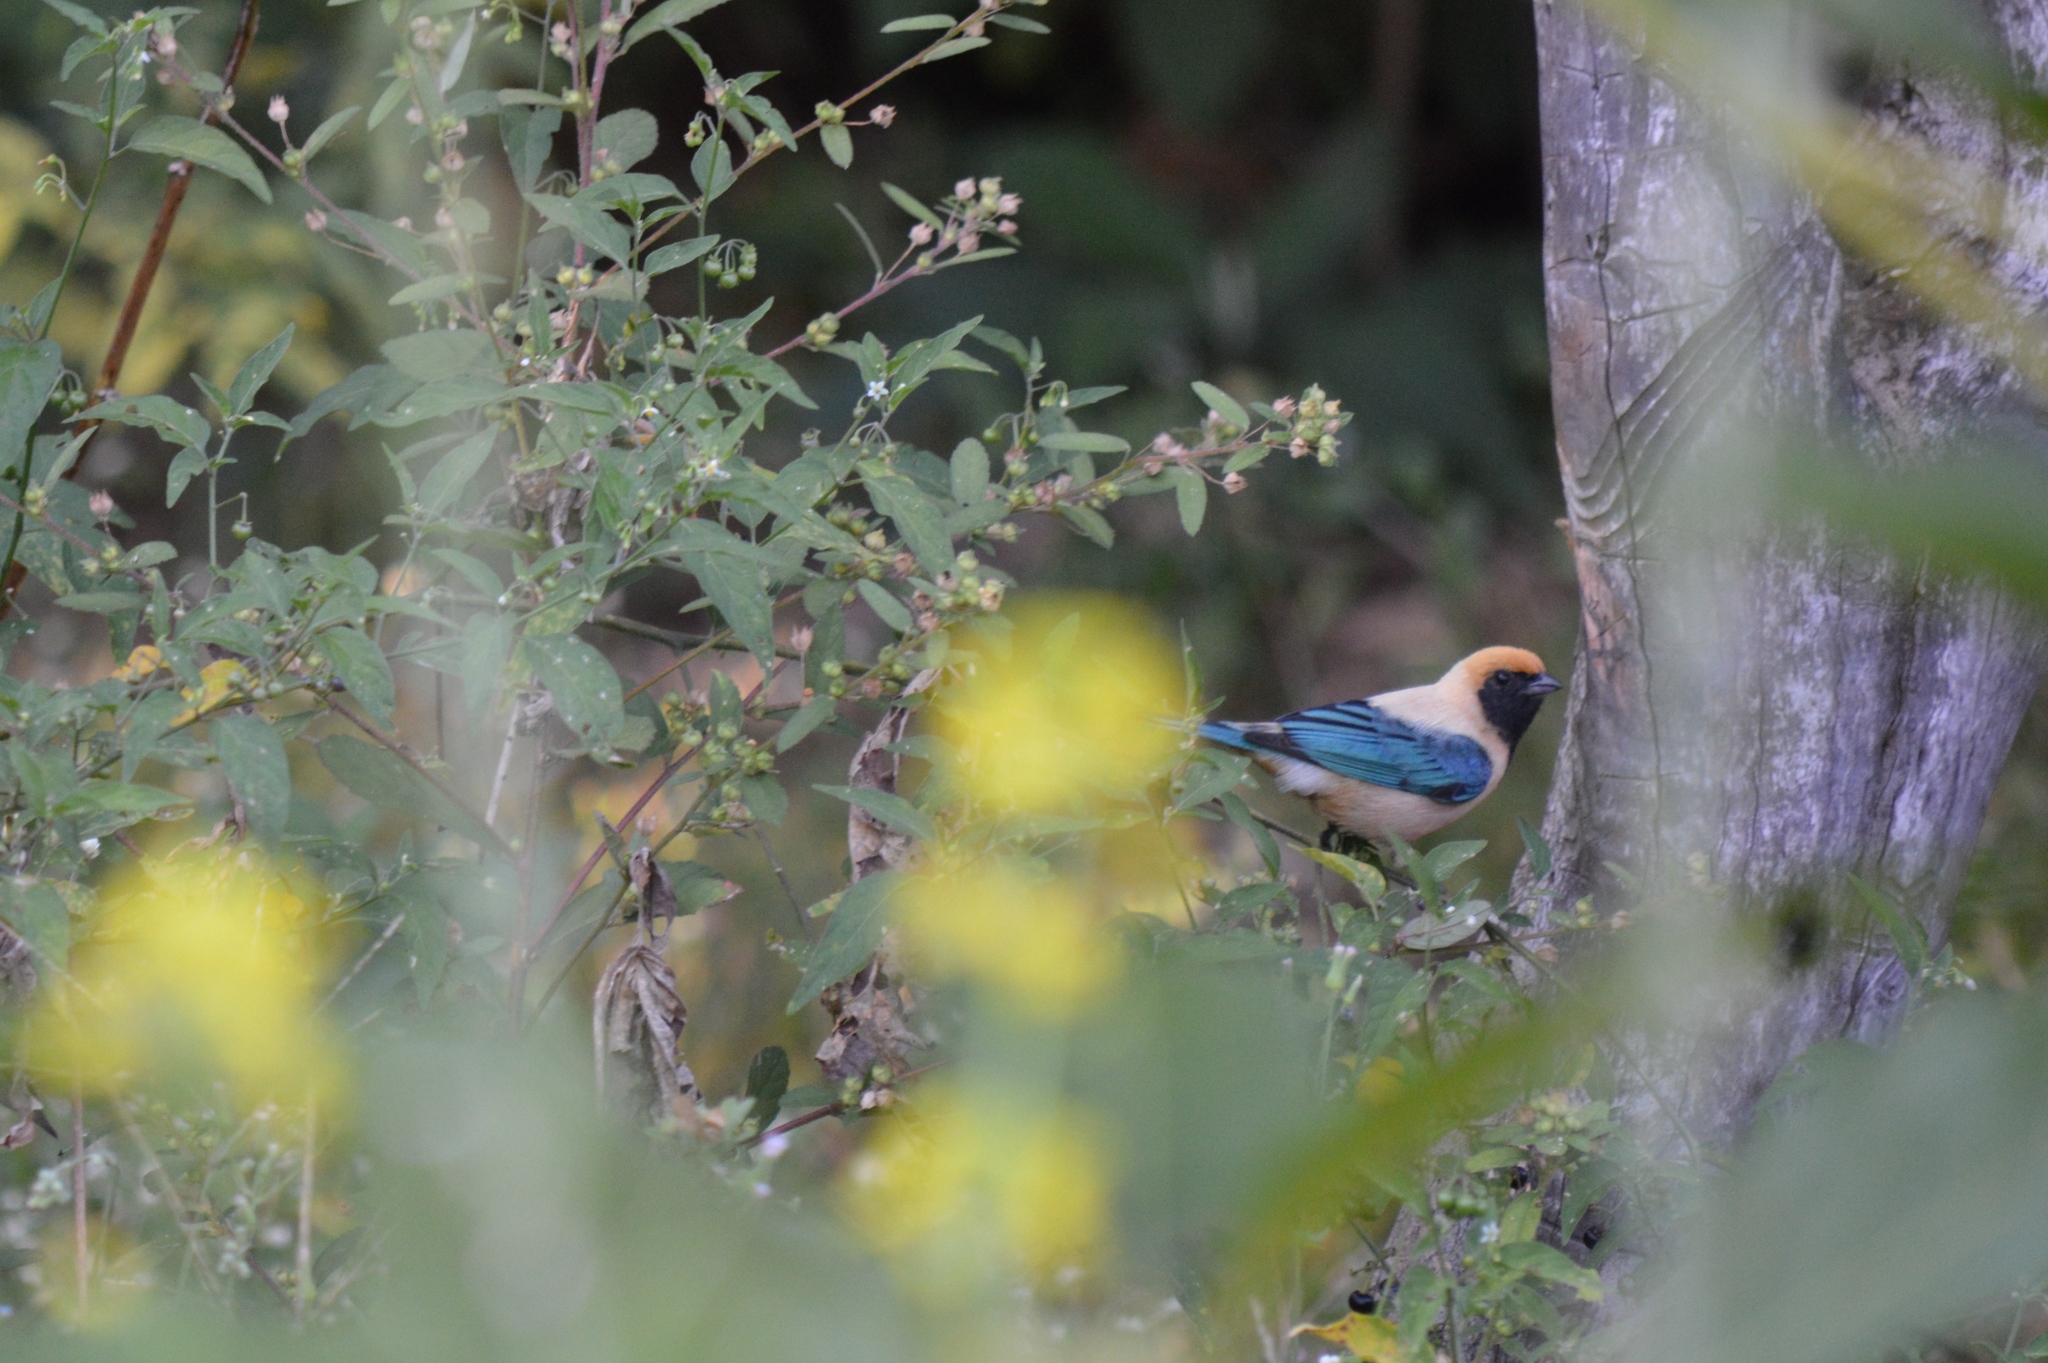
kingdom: Animalia
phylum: Chordata
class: Aves
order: Passeriformes
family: Thraupidae
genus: Stilpnia
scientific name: Stilpnia cayana
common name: Burnished-buff tanager
